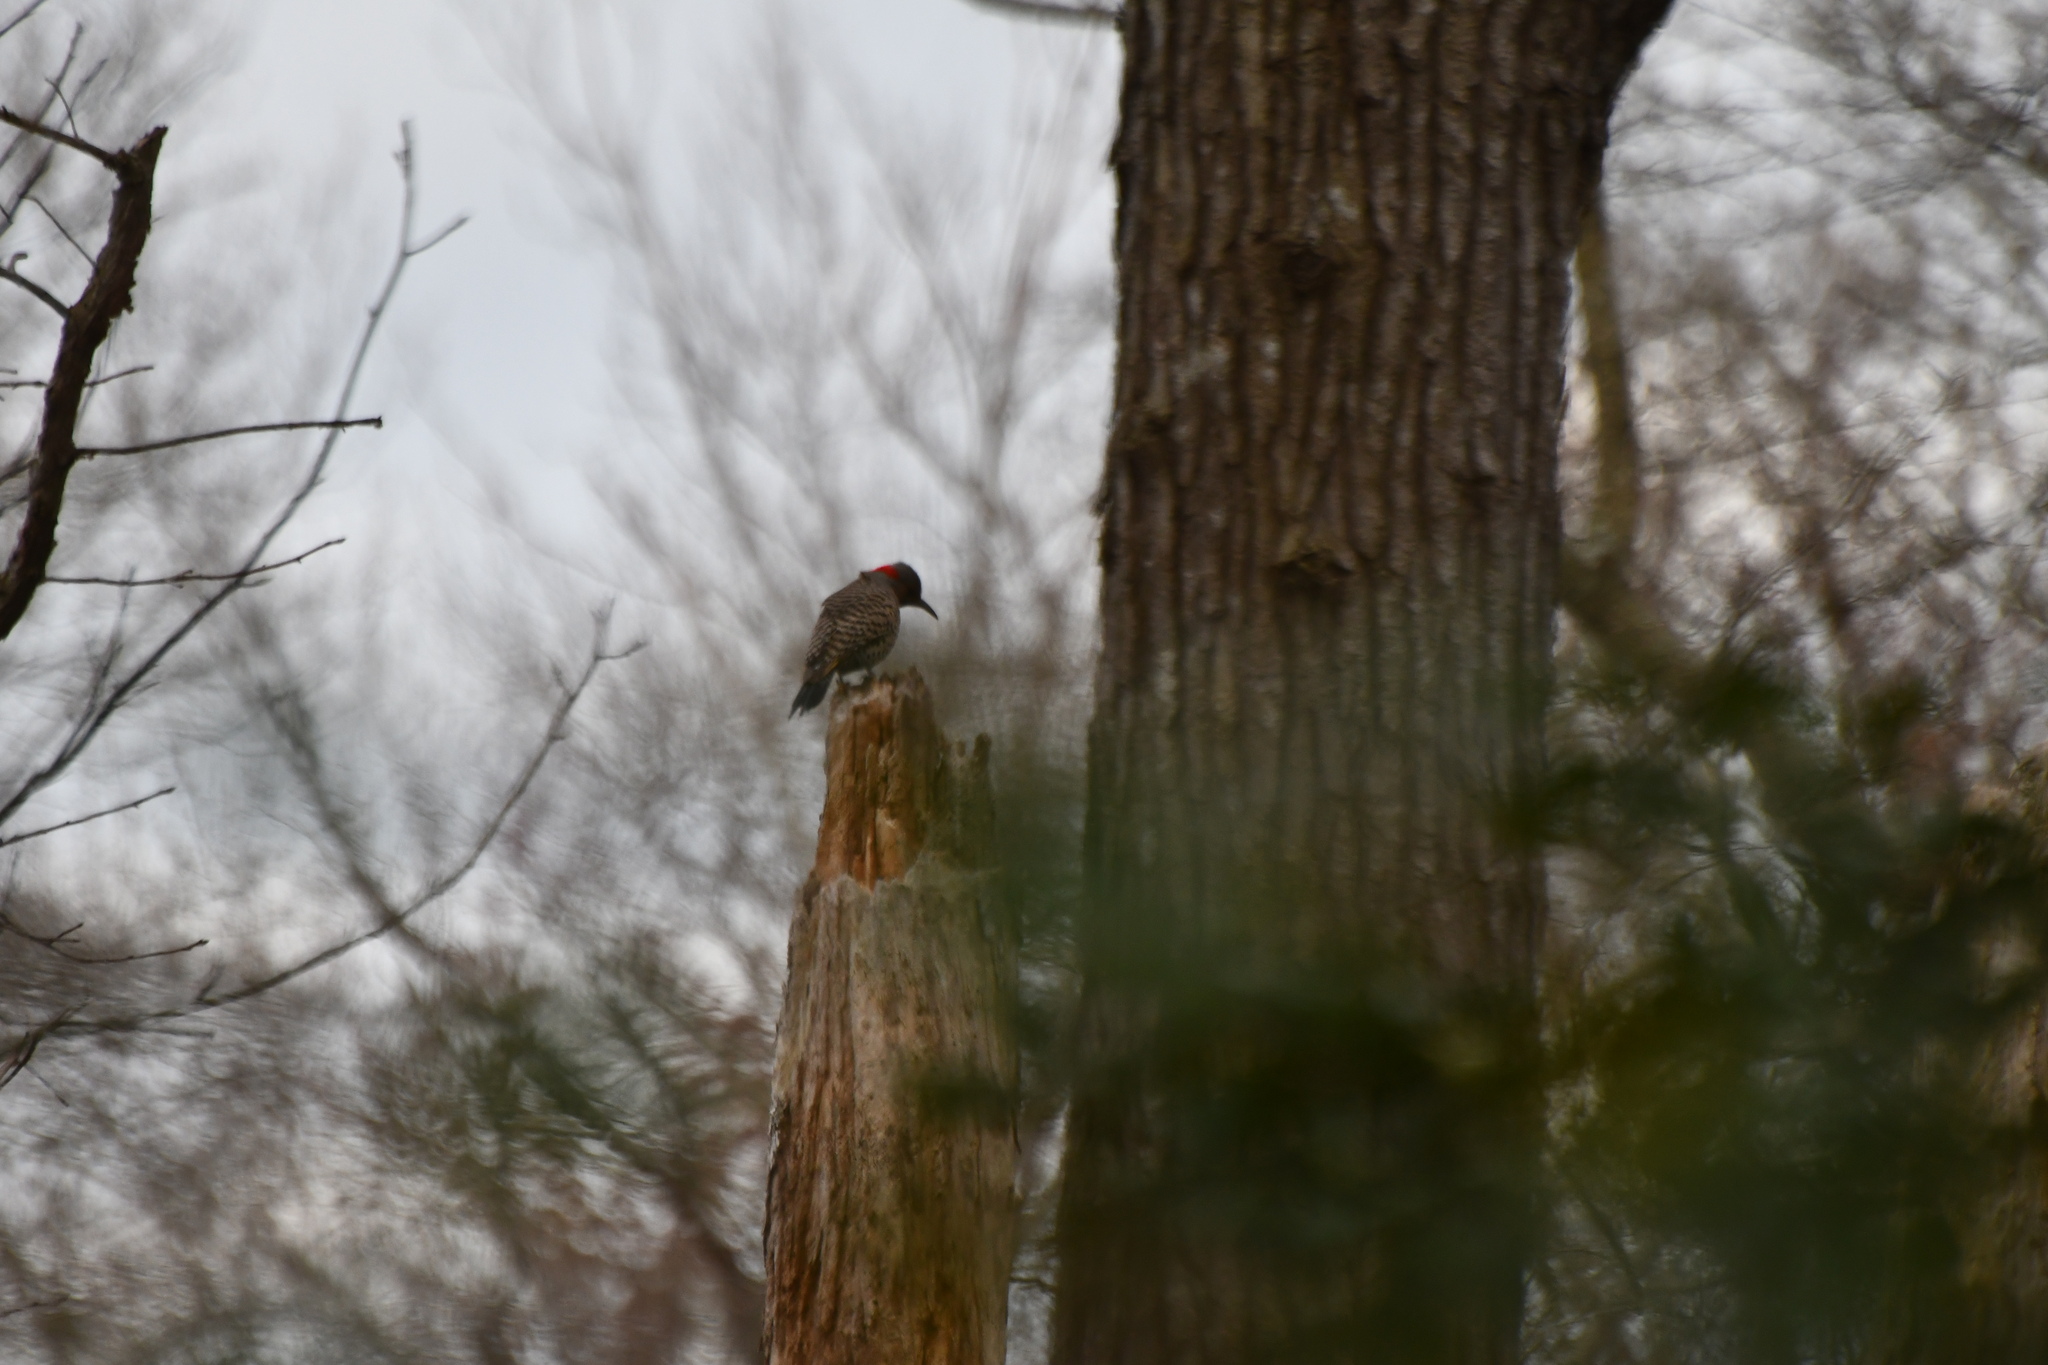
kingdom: Animalia
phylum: Chordata
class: Aves
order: Piciformes
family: Picidae
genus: Colaptes
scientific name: Colaptes auratus
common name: Northern flicker
